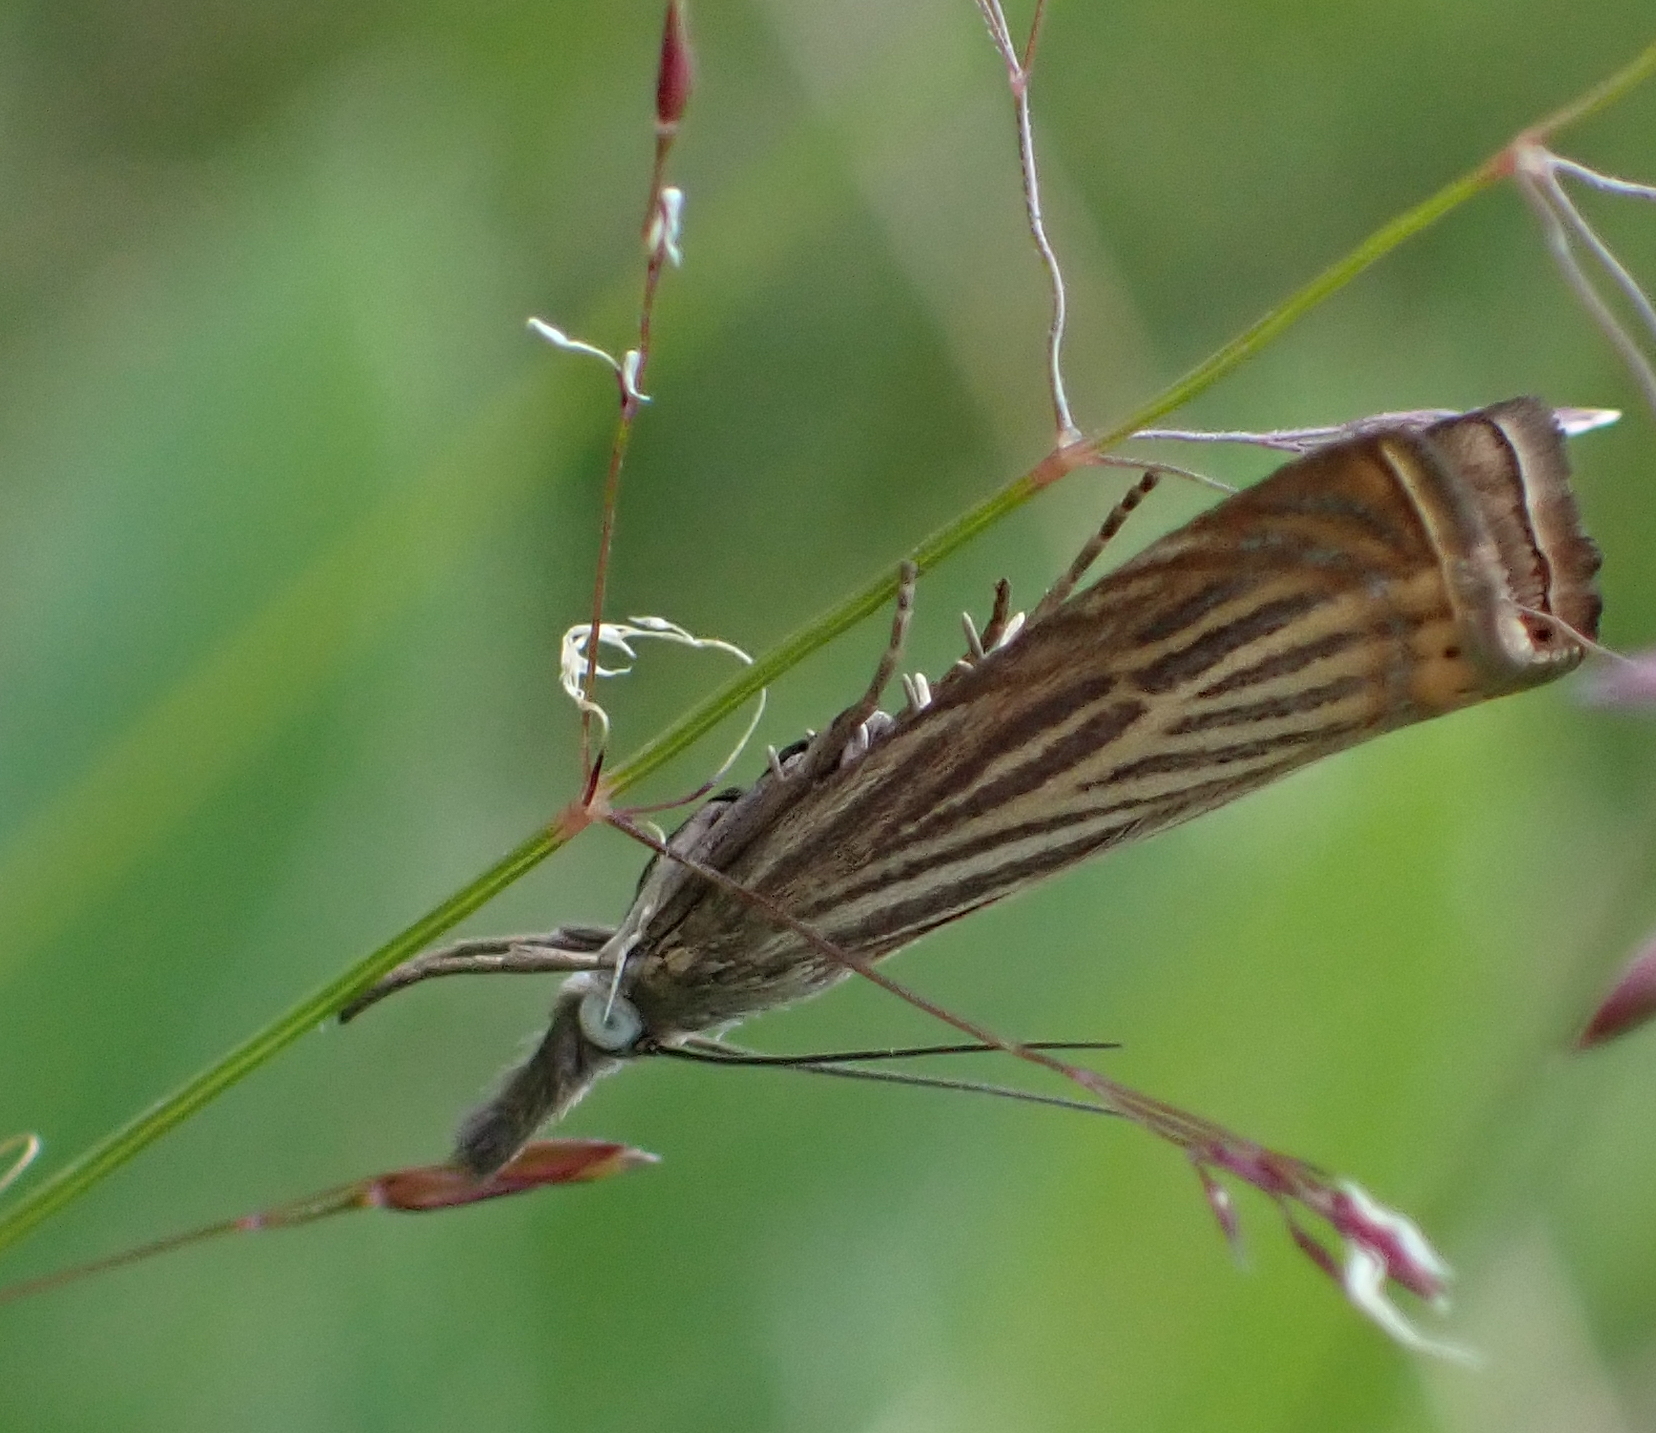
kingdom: Animalia
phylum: Arthropoda
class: Insecta
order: Lepidoptera
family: Crambidae
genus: Chrysoteuchia
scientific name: Chrysoteuchia culmella
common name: Garden grass-veneer
